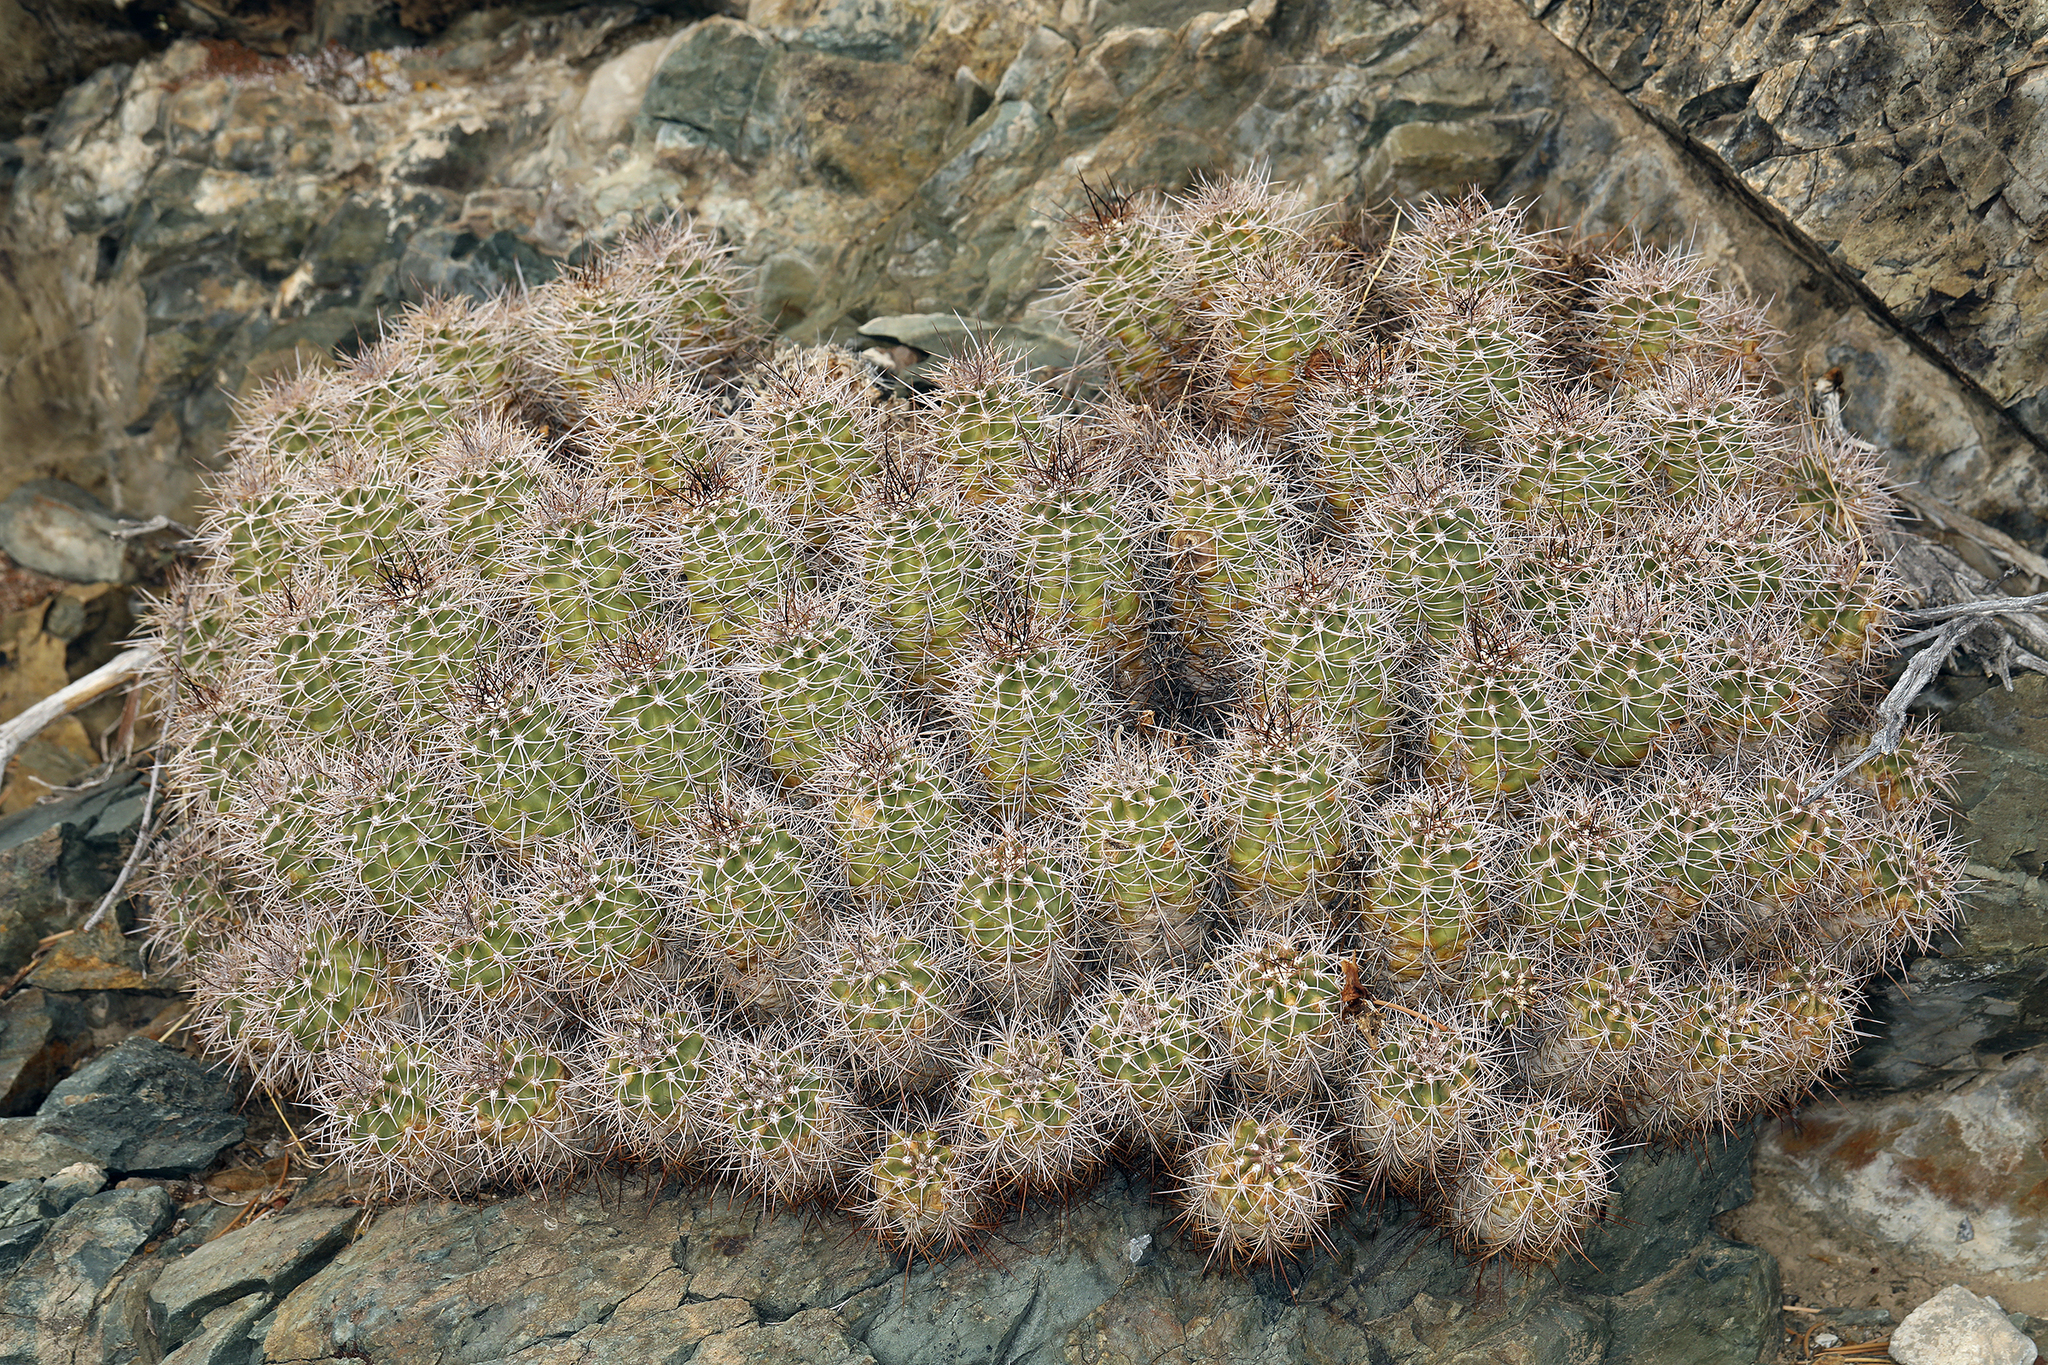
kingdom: Plantae
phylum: Tracheophyta
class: Magnoliopsida
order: Caryophyllales
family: Cactaceae
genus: Echinocereus
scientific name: Echinocereus triglochidiatus
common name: Claretcup hedgehog
